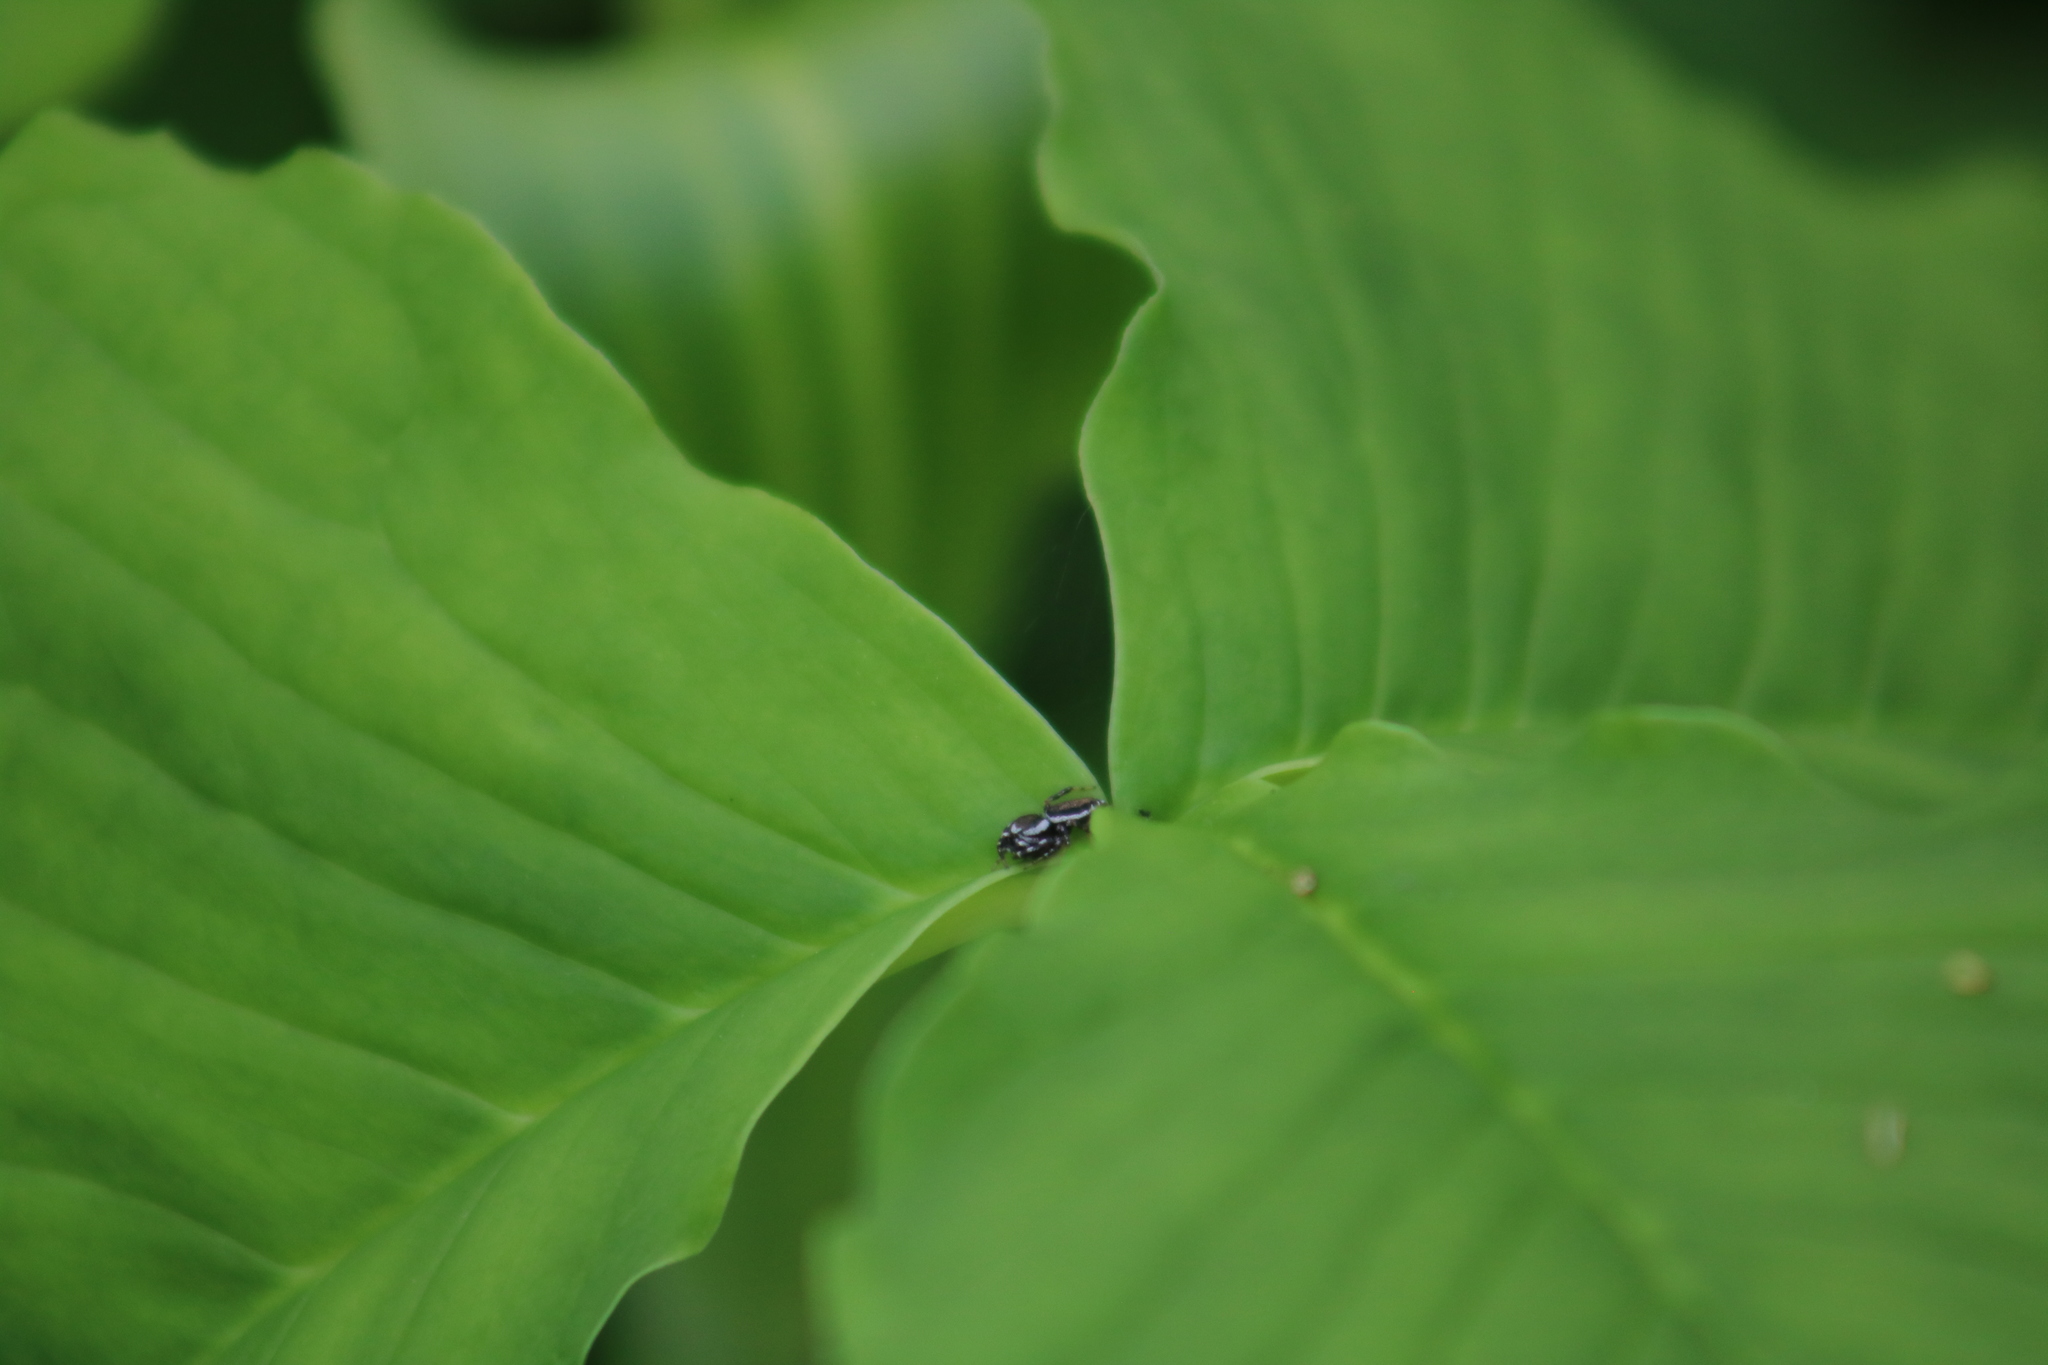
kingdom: Animalia
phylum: Arthropoda
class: Arachnida
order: Araneae
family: Salticidae
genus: Pelegrina
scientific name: Pelegrina proterva
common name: Common white-cheeked jumping spider
